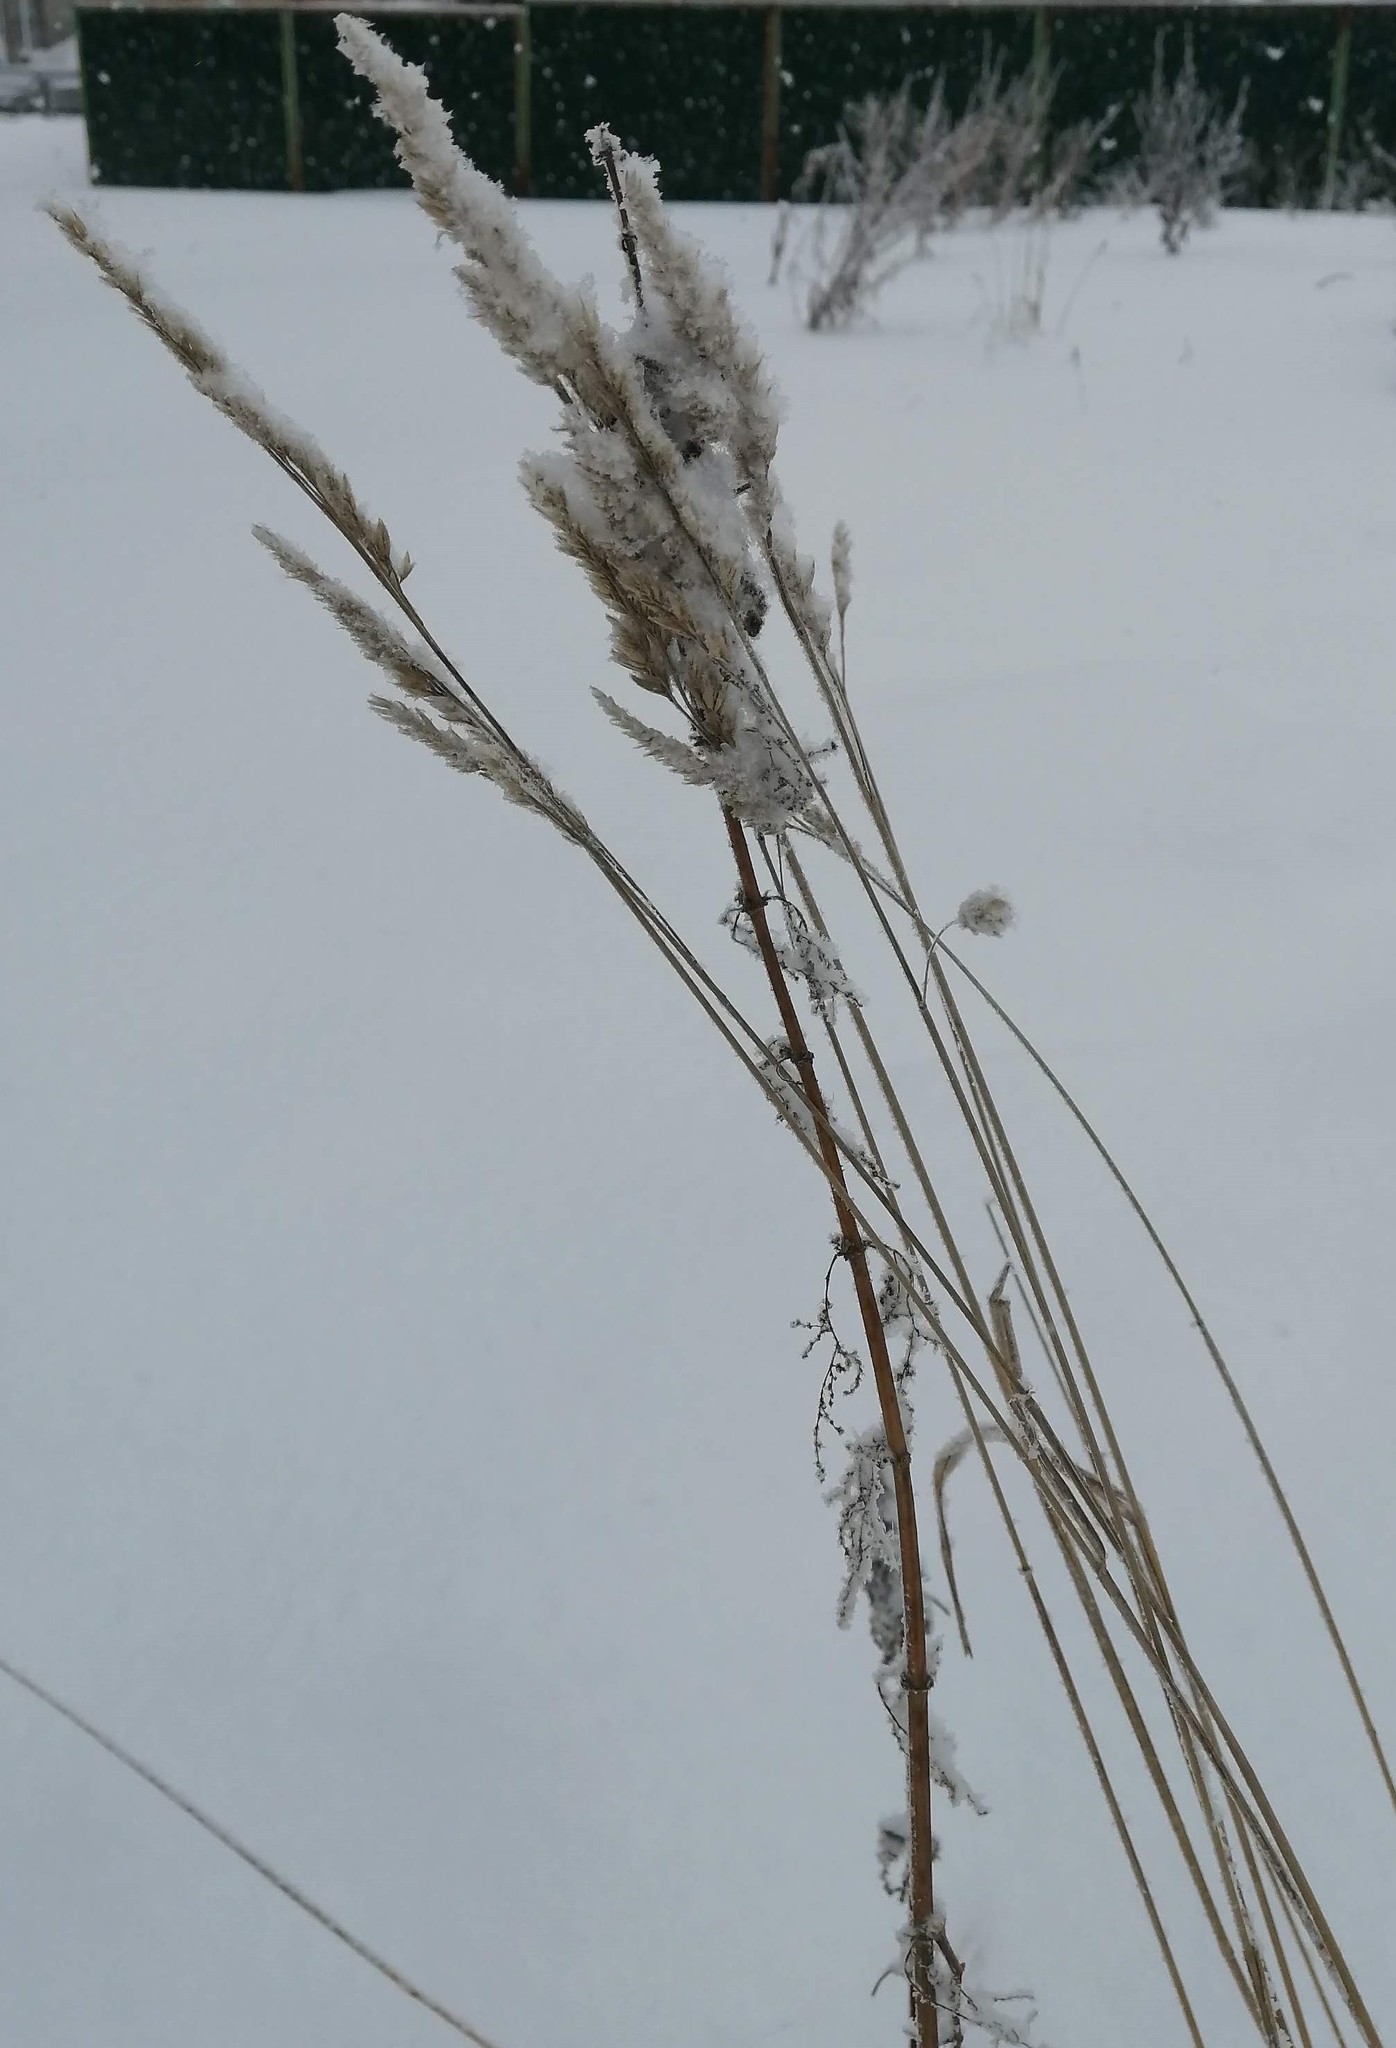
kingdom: Plantae
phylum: Tracheophyta
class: Liliopsida
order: Poales
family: Poaceae
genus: Dactylis
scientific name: Dactylis glomerata
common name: Orchardgrass
